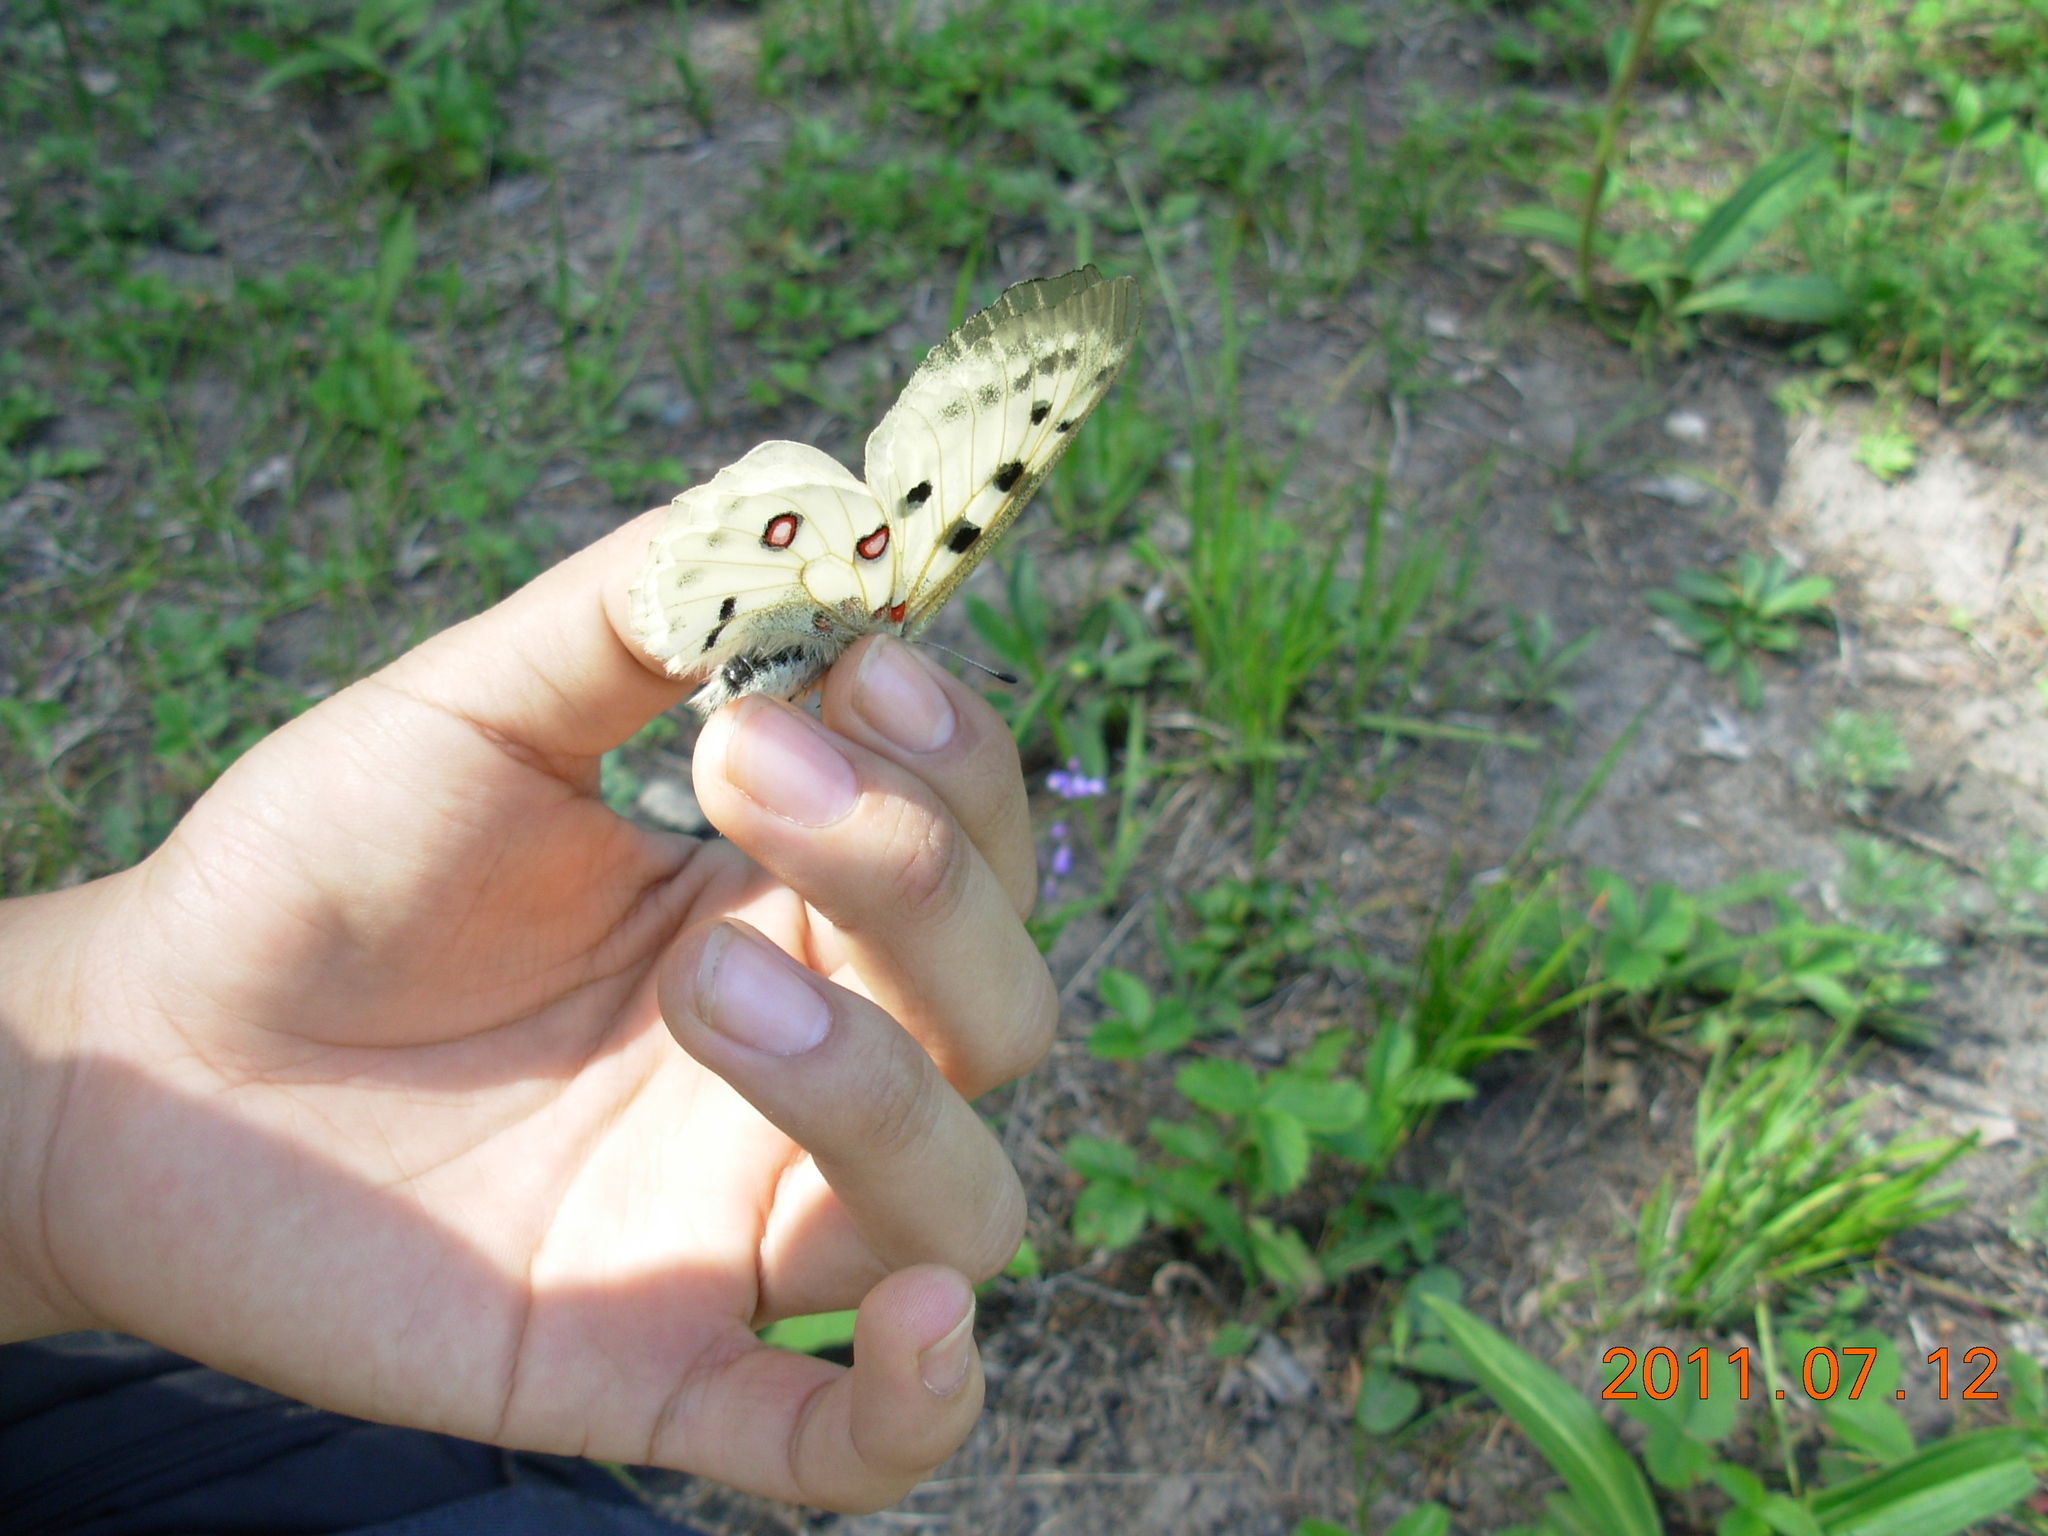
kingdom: Animalia
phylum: Arthropoda
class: Insecta
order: Lepidoptera
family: Papilionidae
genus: Parnassius
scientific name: Parnassius apollo
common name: Apollo
